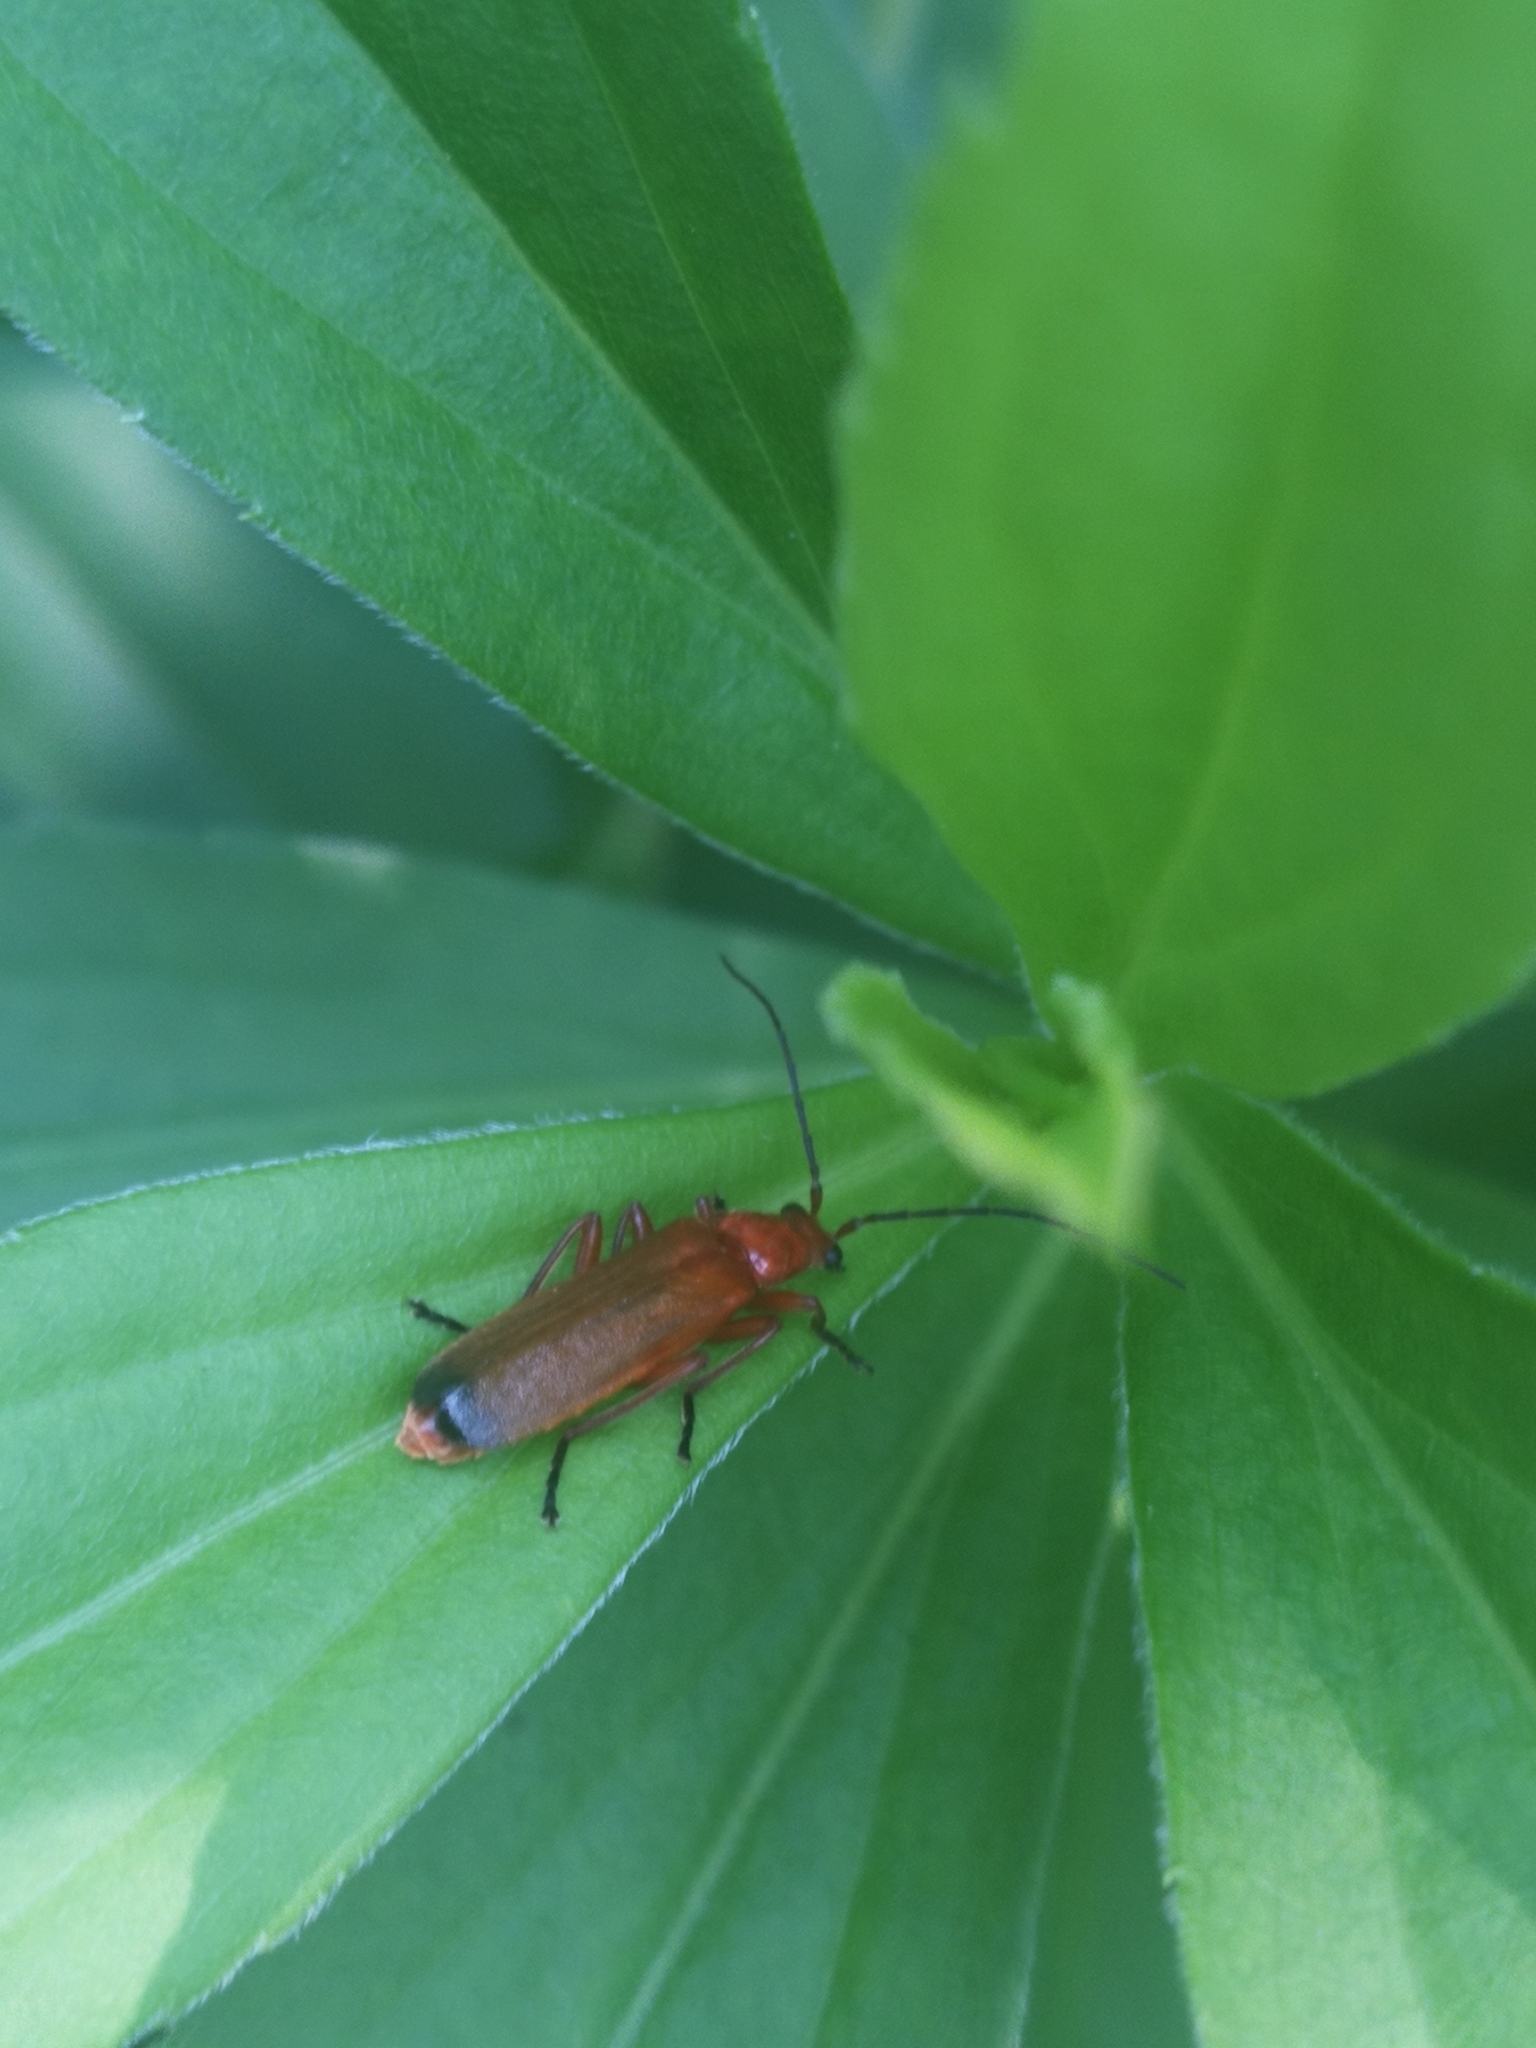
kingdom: Animalia
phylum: Arthropoda
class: Insecta
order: Coleoptera
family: Cantharidae
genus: Rhagonycha
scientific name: Rhagonycha fulva
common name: Common red soldier beetle
